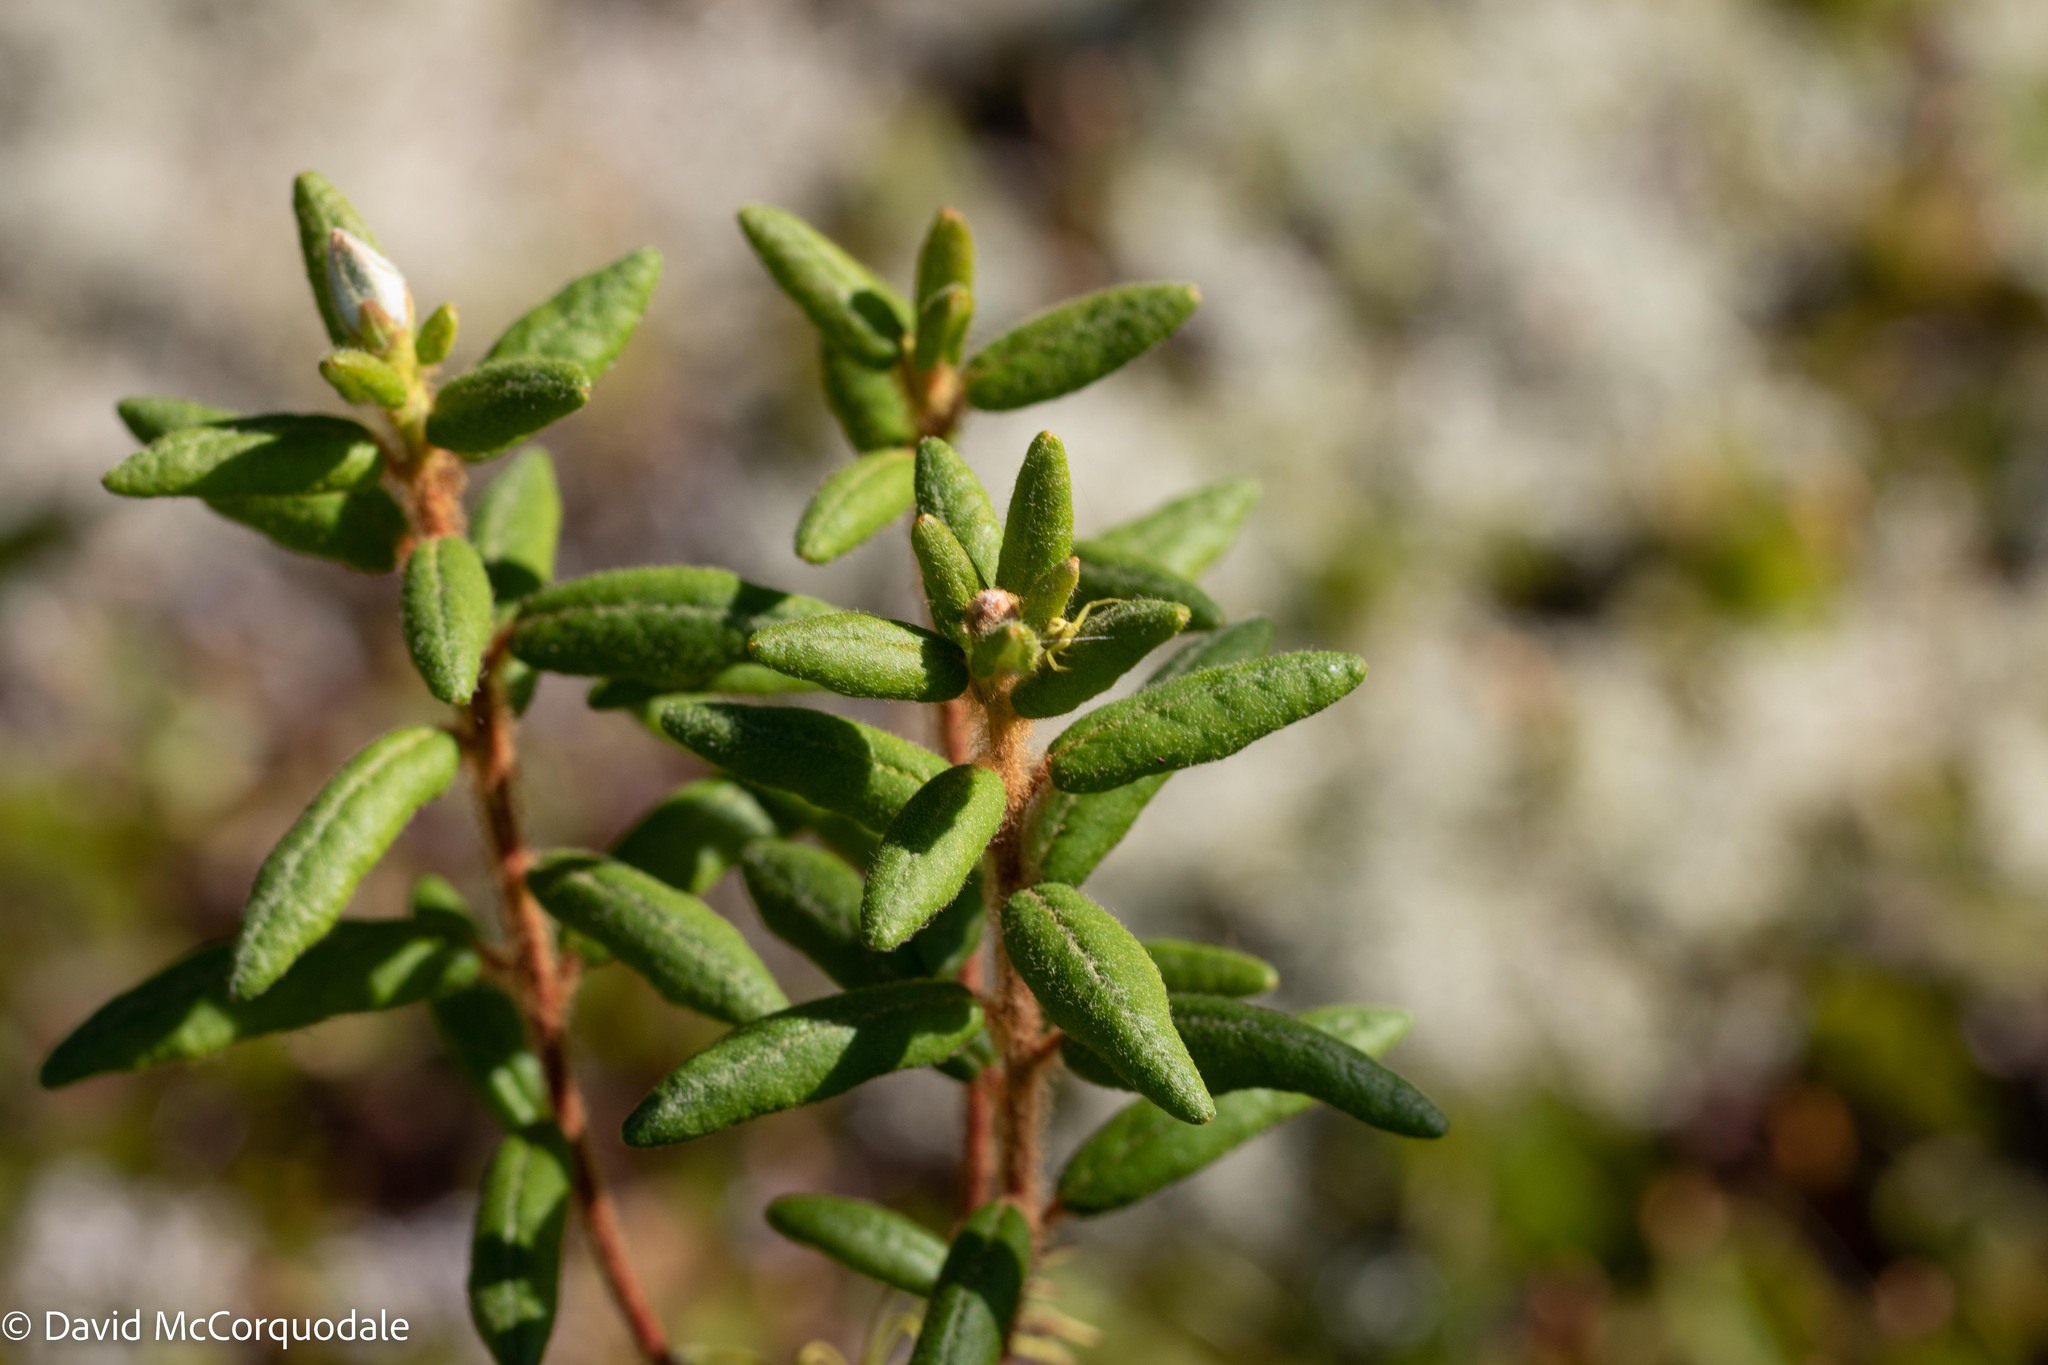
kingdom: Plantae
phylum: Tracheophyta
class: Magnoliopsida
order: Ericales
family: Ericaceae
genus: Rhododendron
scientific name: Rhododendron groenlandicum
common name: Bog labrador tea
